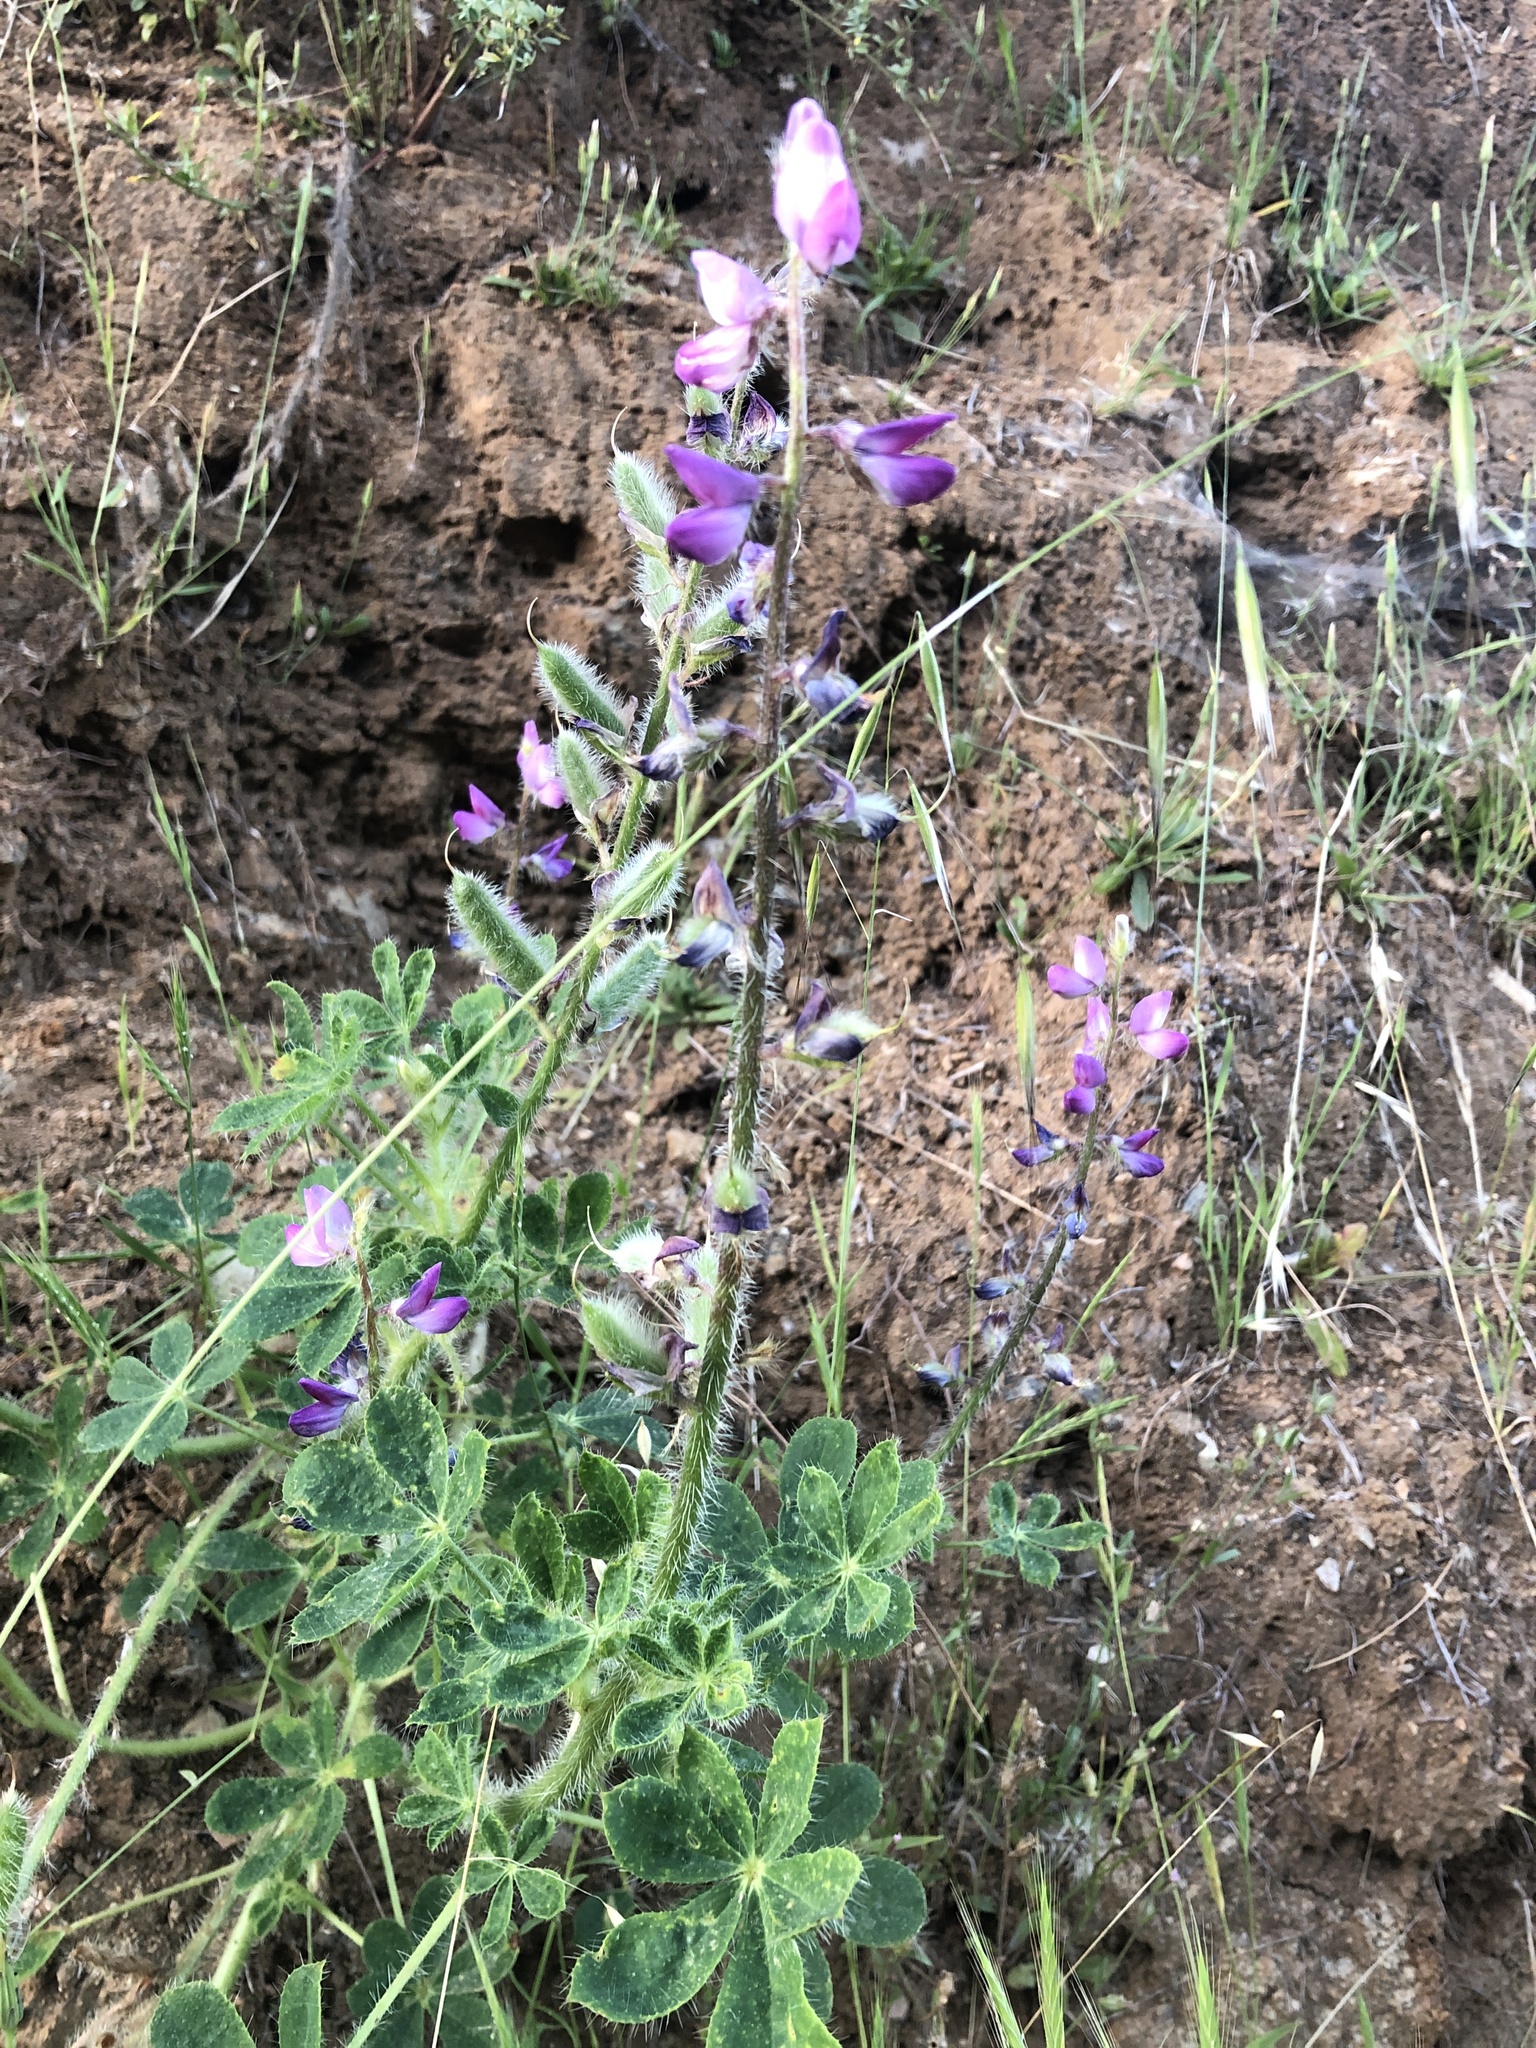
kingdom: Plantae
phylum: Tracheophyta
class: Magnoliopsida
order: Fabales
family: Fabaceae
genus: Lupinus
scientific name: Lupinus hirsutissimus
